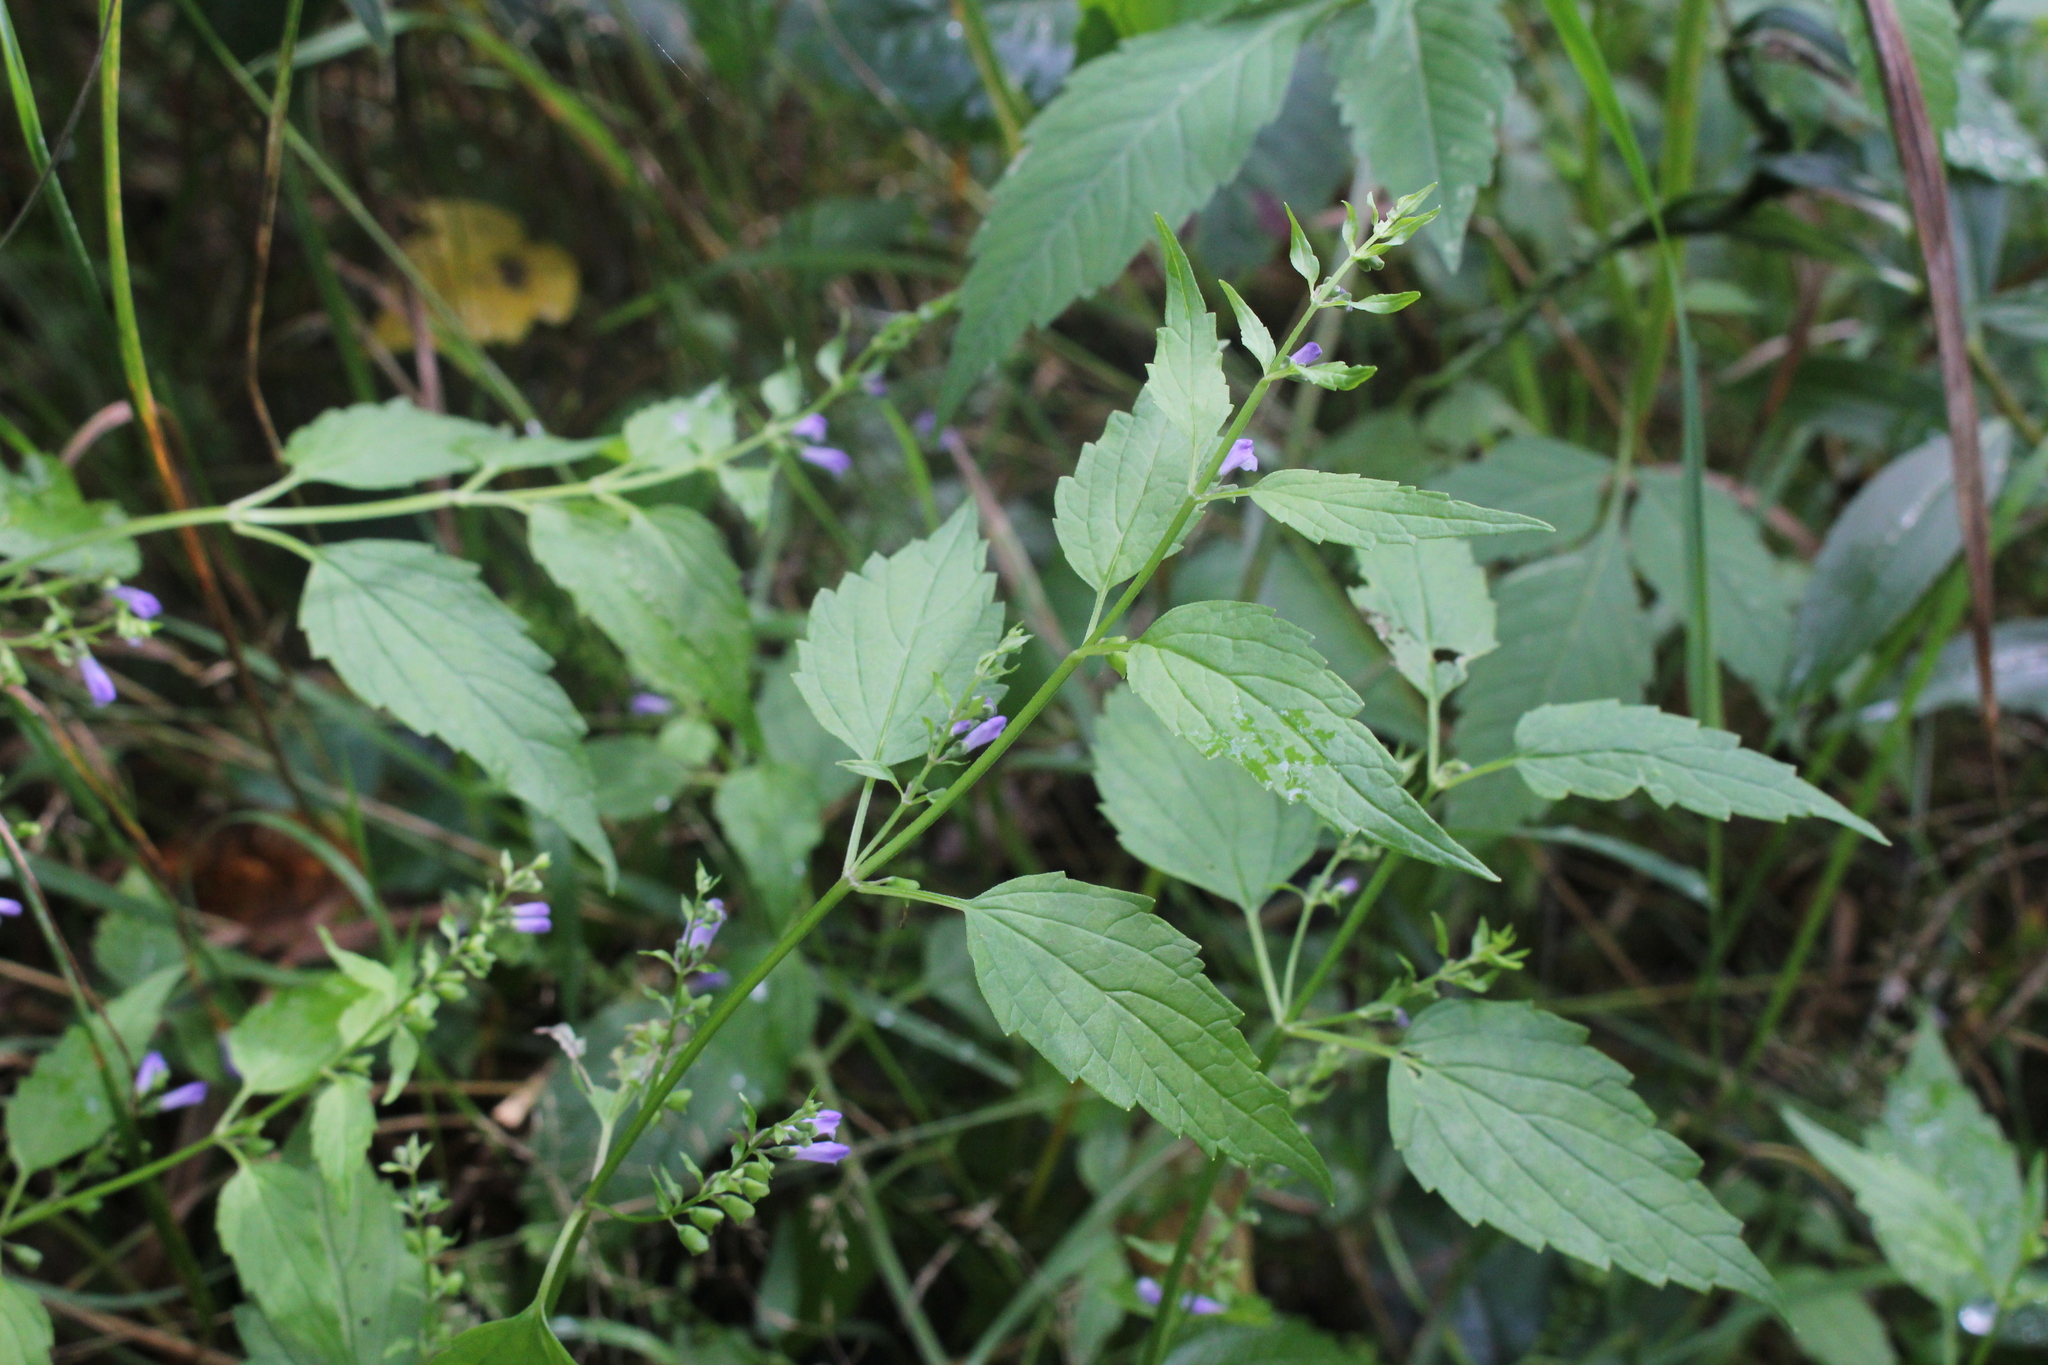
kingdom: Plantae
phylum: Tracheophyta
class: Magnoliopsida
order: Lamiales
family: Lamiaceae
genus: Scutellaria
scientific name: Scutellaria lateriflora
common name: Blue skullcap
